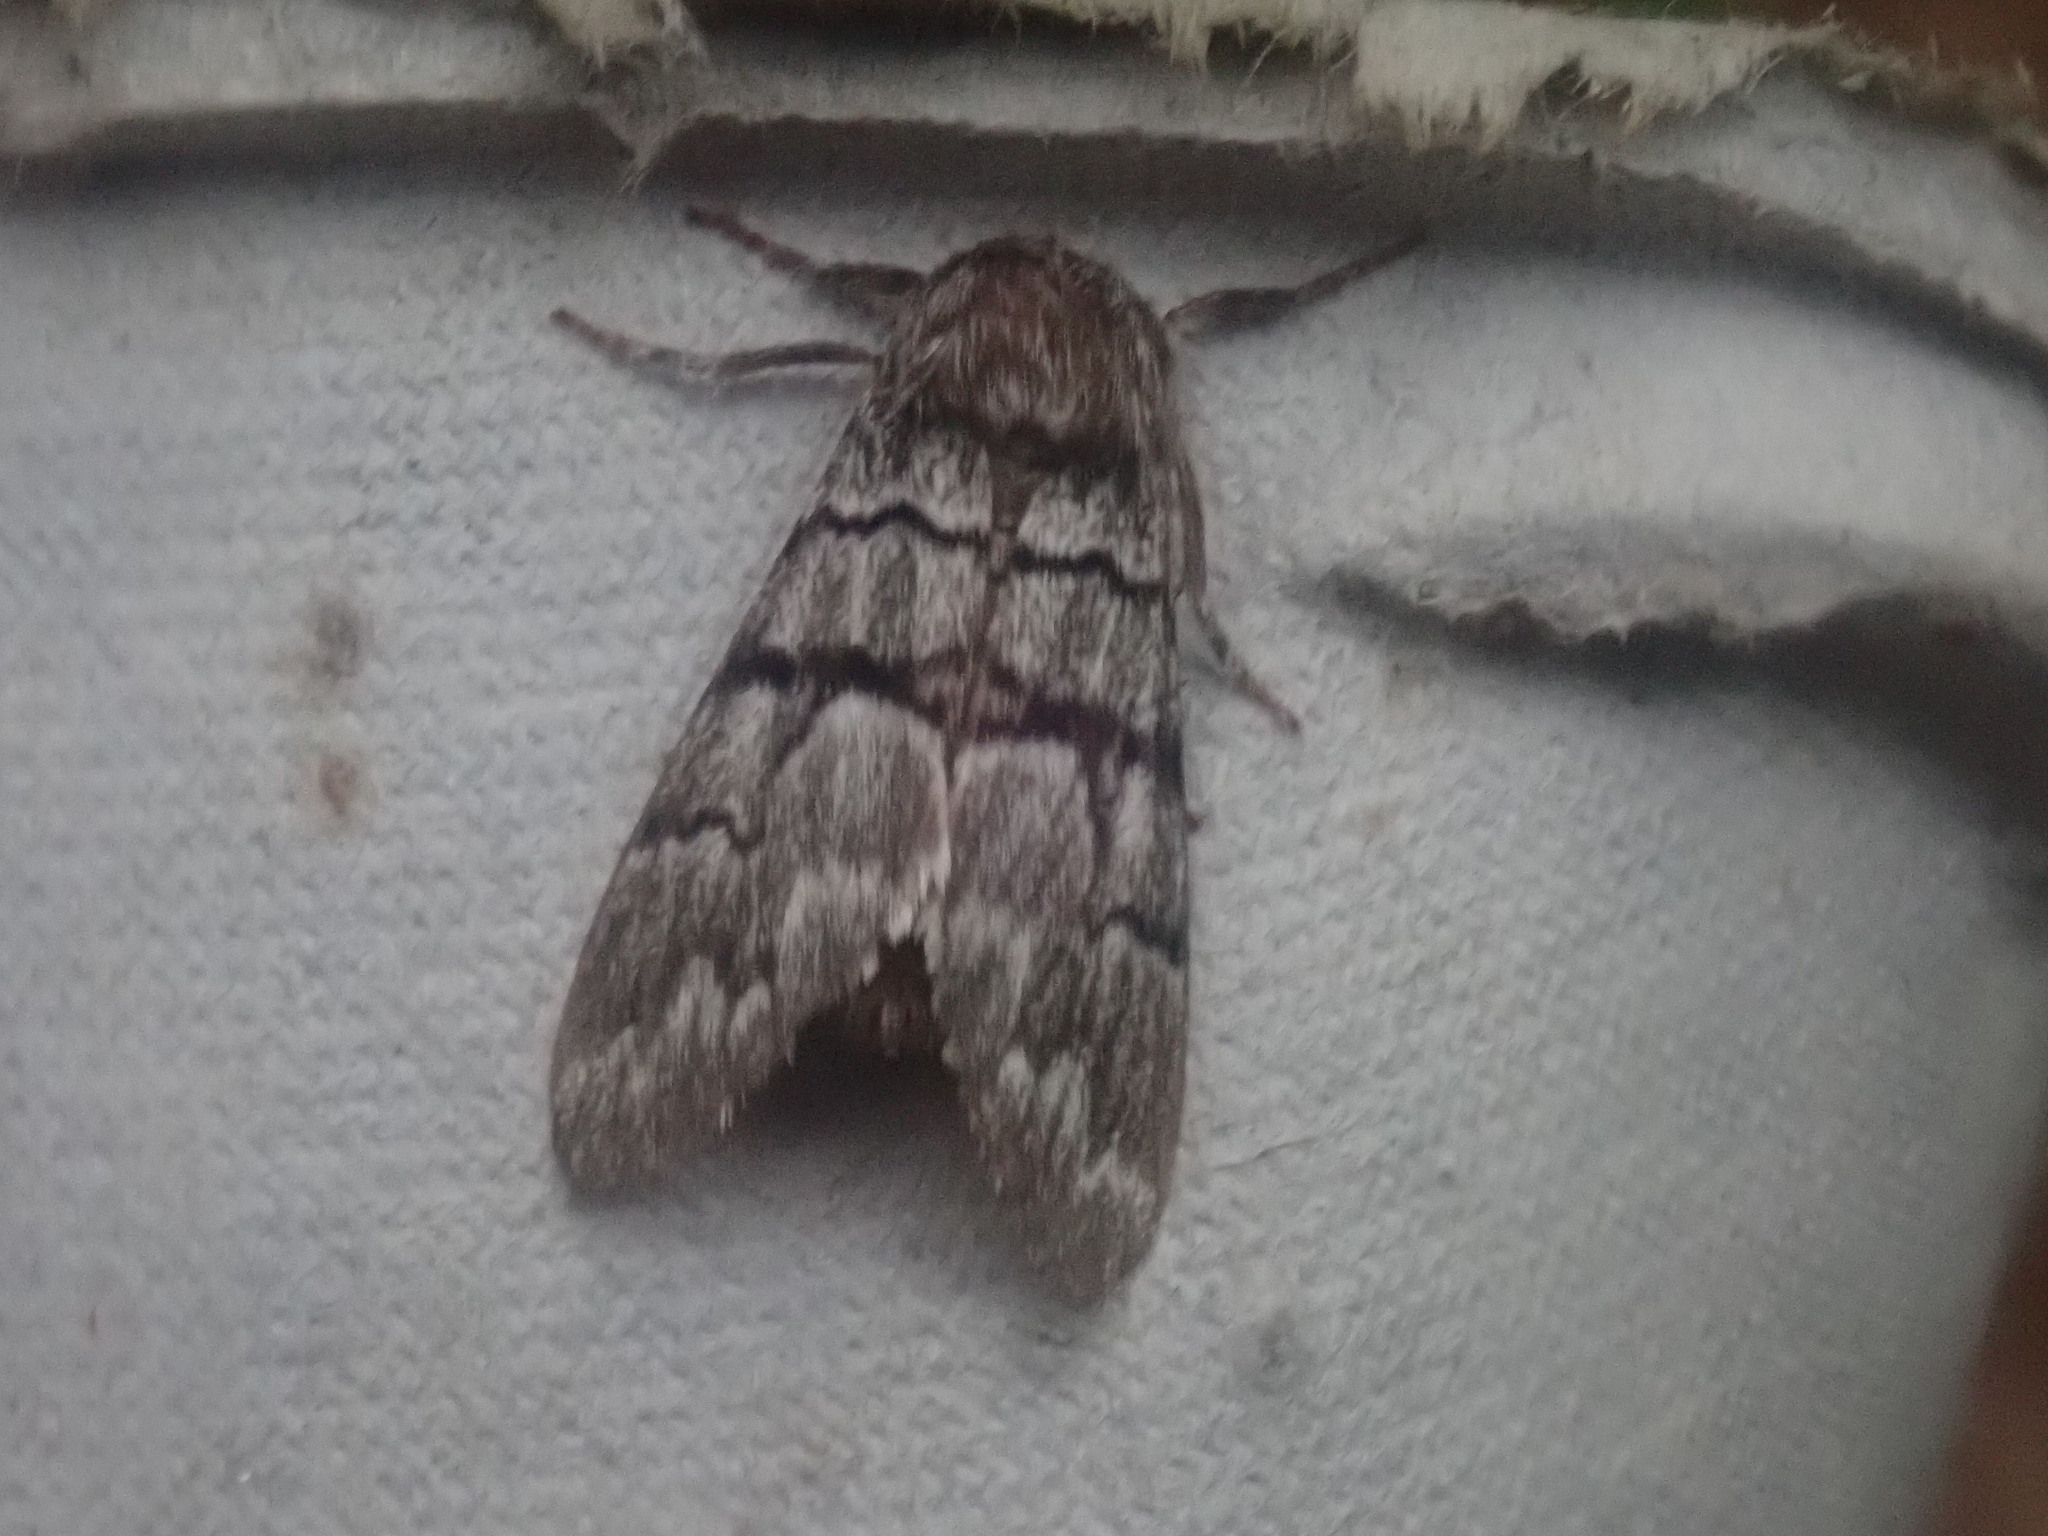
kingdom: Animalia
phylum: Arthropoda
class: Insecta
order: Lepidoptera
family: Noctuidae
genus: Panthea
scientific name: Panthea furcilla
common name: Eastern panthea moth
